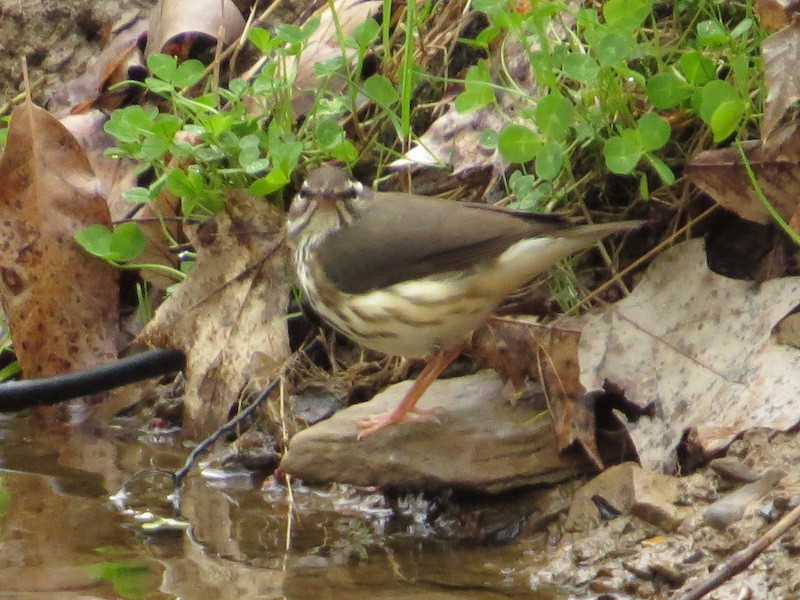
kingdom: Animalia
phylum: Chordata
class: Aves
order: Passeriformes
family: Parulidae
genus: Parkesia
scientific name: Parkesia motacilla
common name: Louisiana waterthrush
